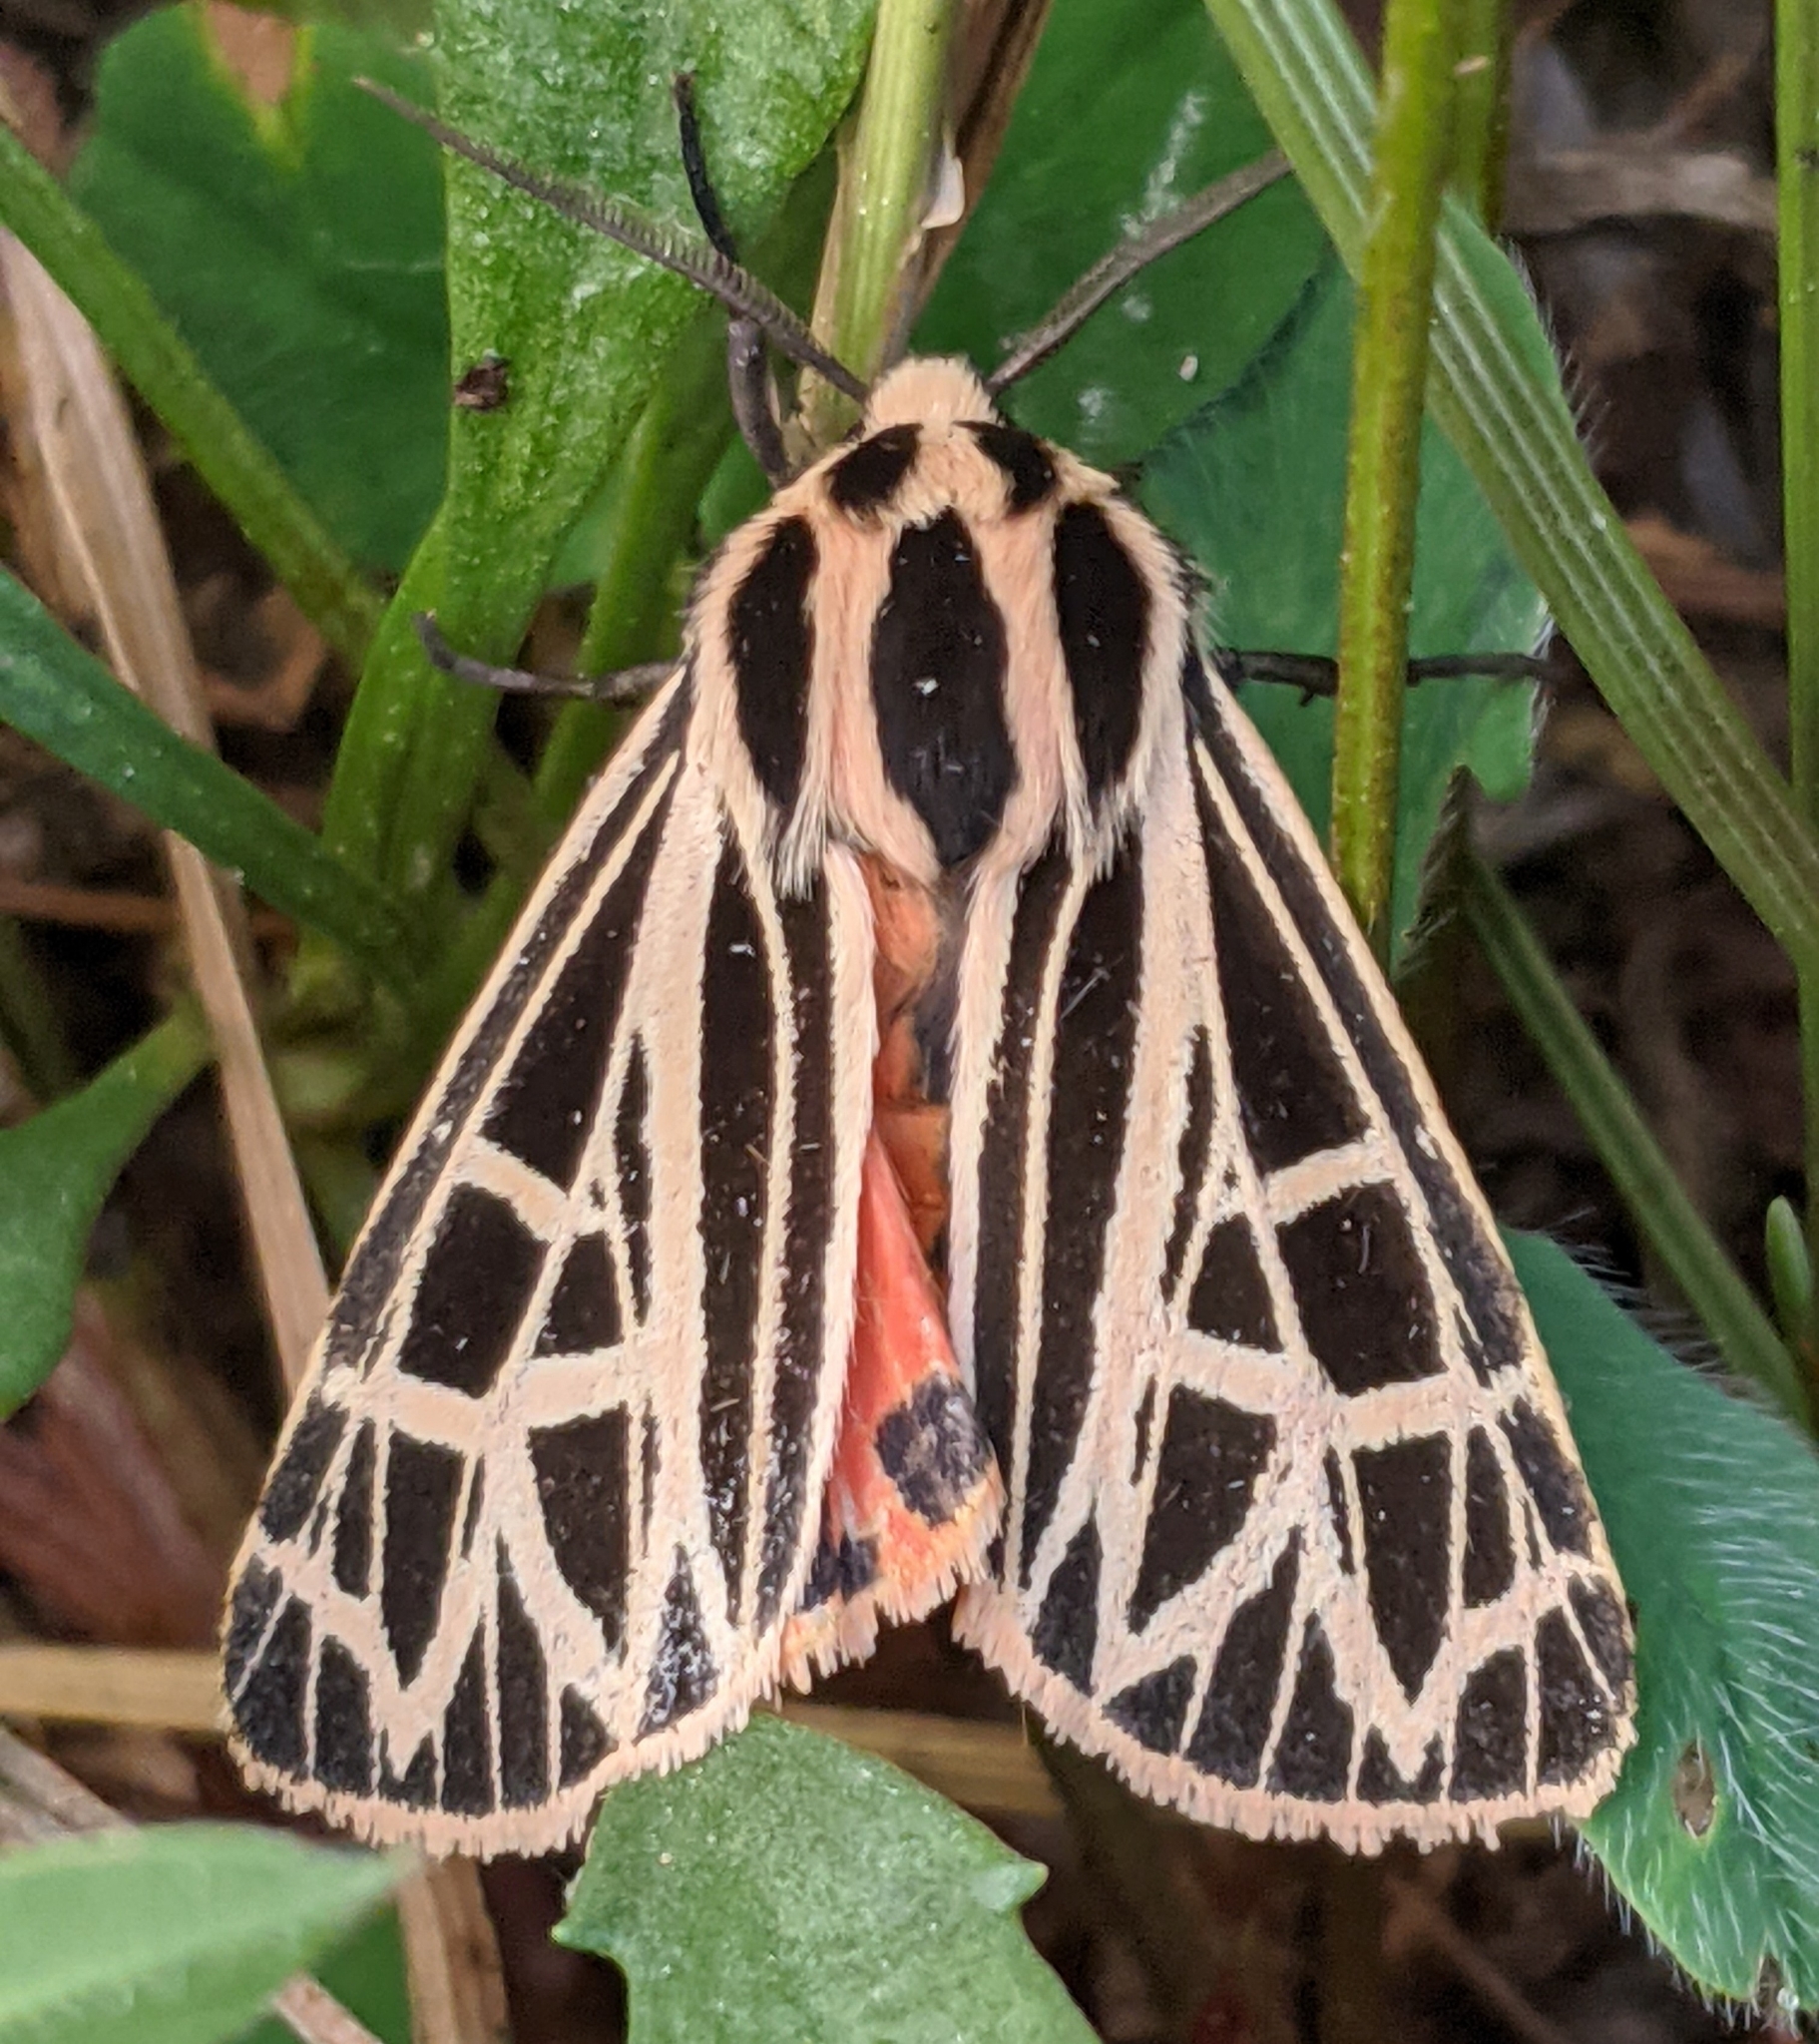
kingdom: Animalia
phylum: Arthropoda
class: Insecta
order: Lepidoptera
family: Erebidae
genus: Grammia
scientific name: Grammia parthenice
